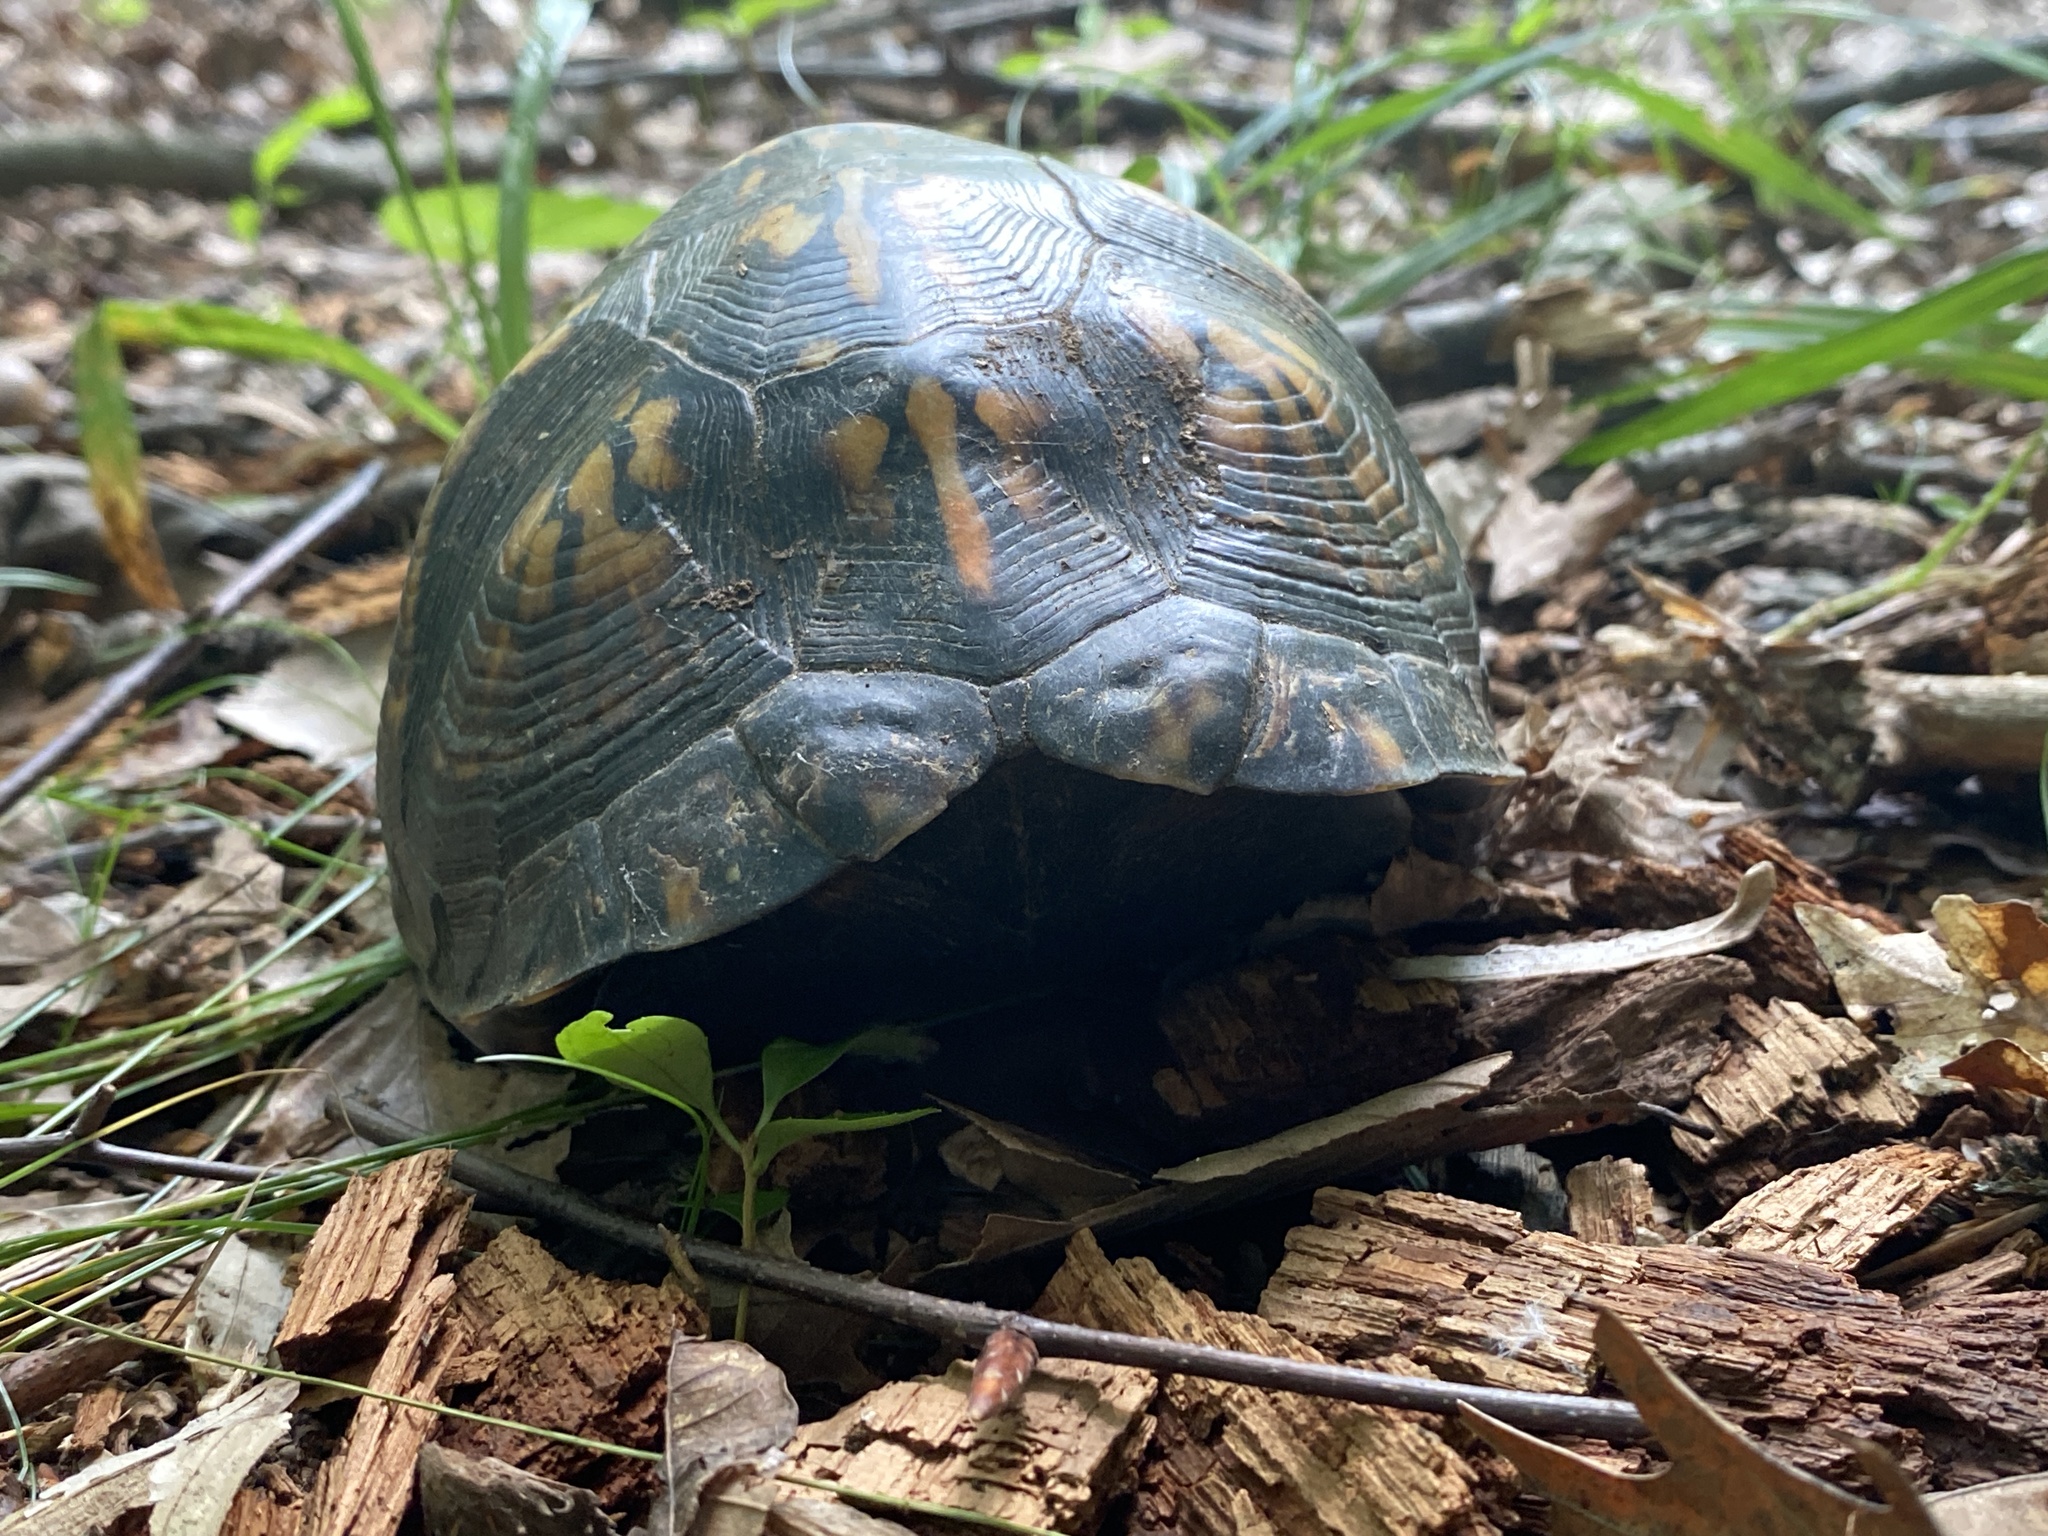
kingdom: Animalia
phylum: Chordata
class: Testudines
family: Emydidae
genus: Terrapene
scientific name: Terrapene carolina
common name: Common box turtle
